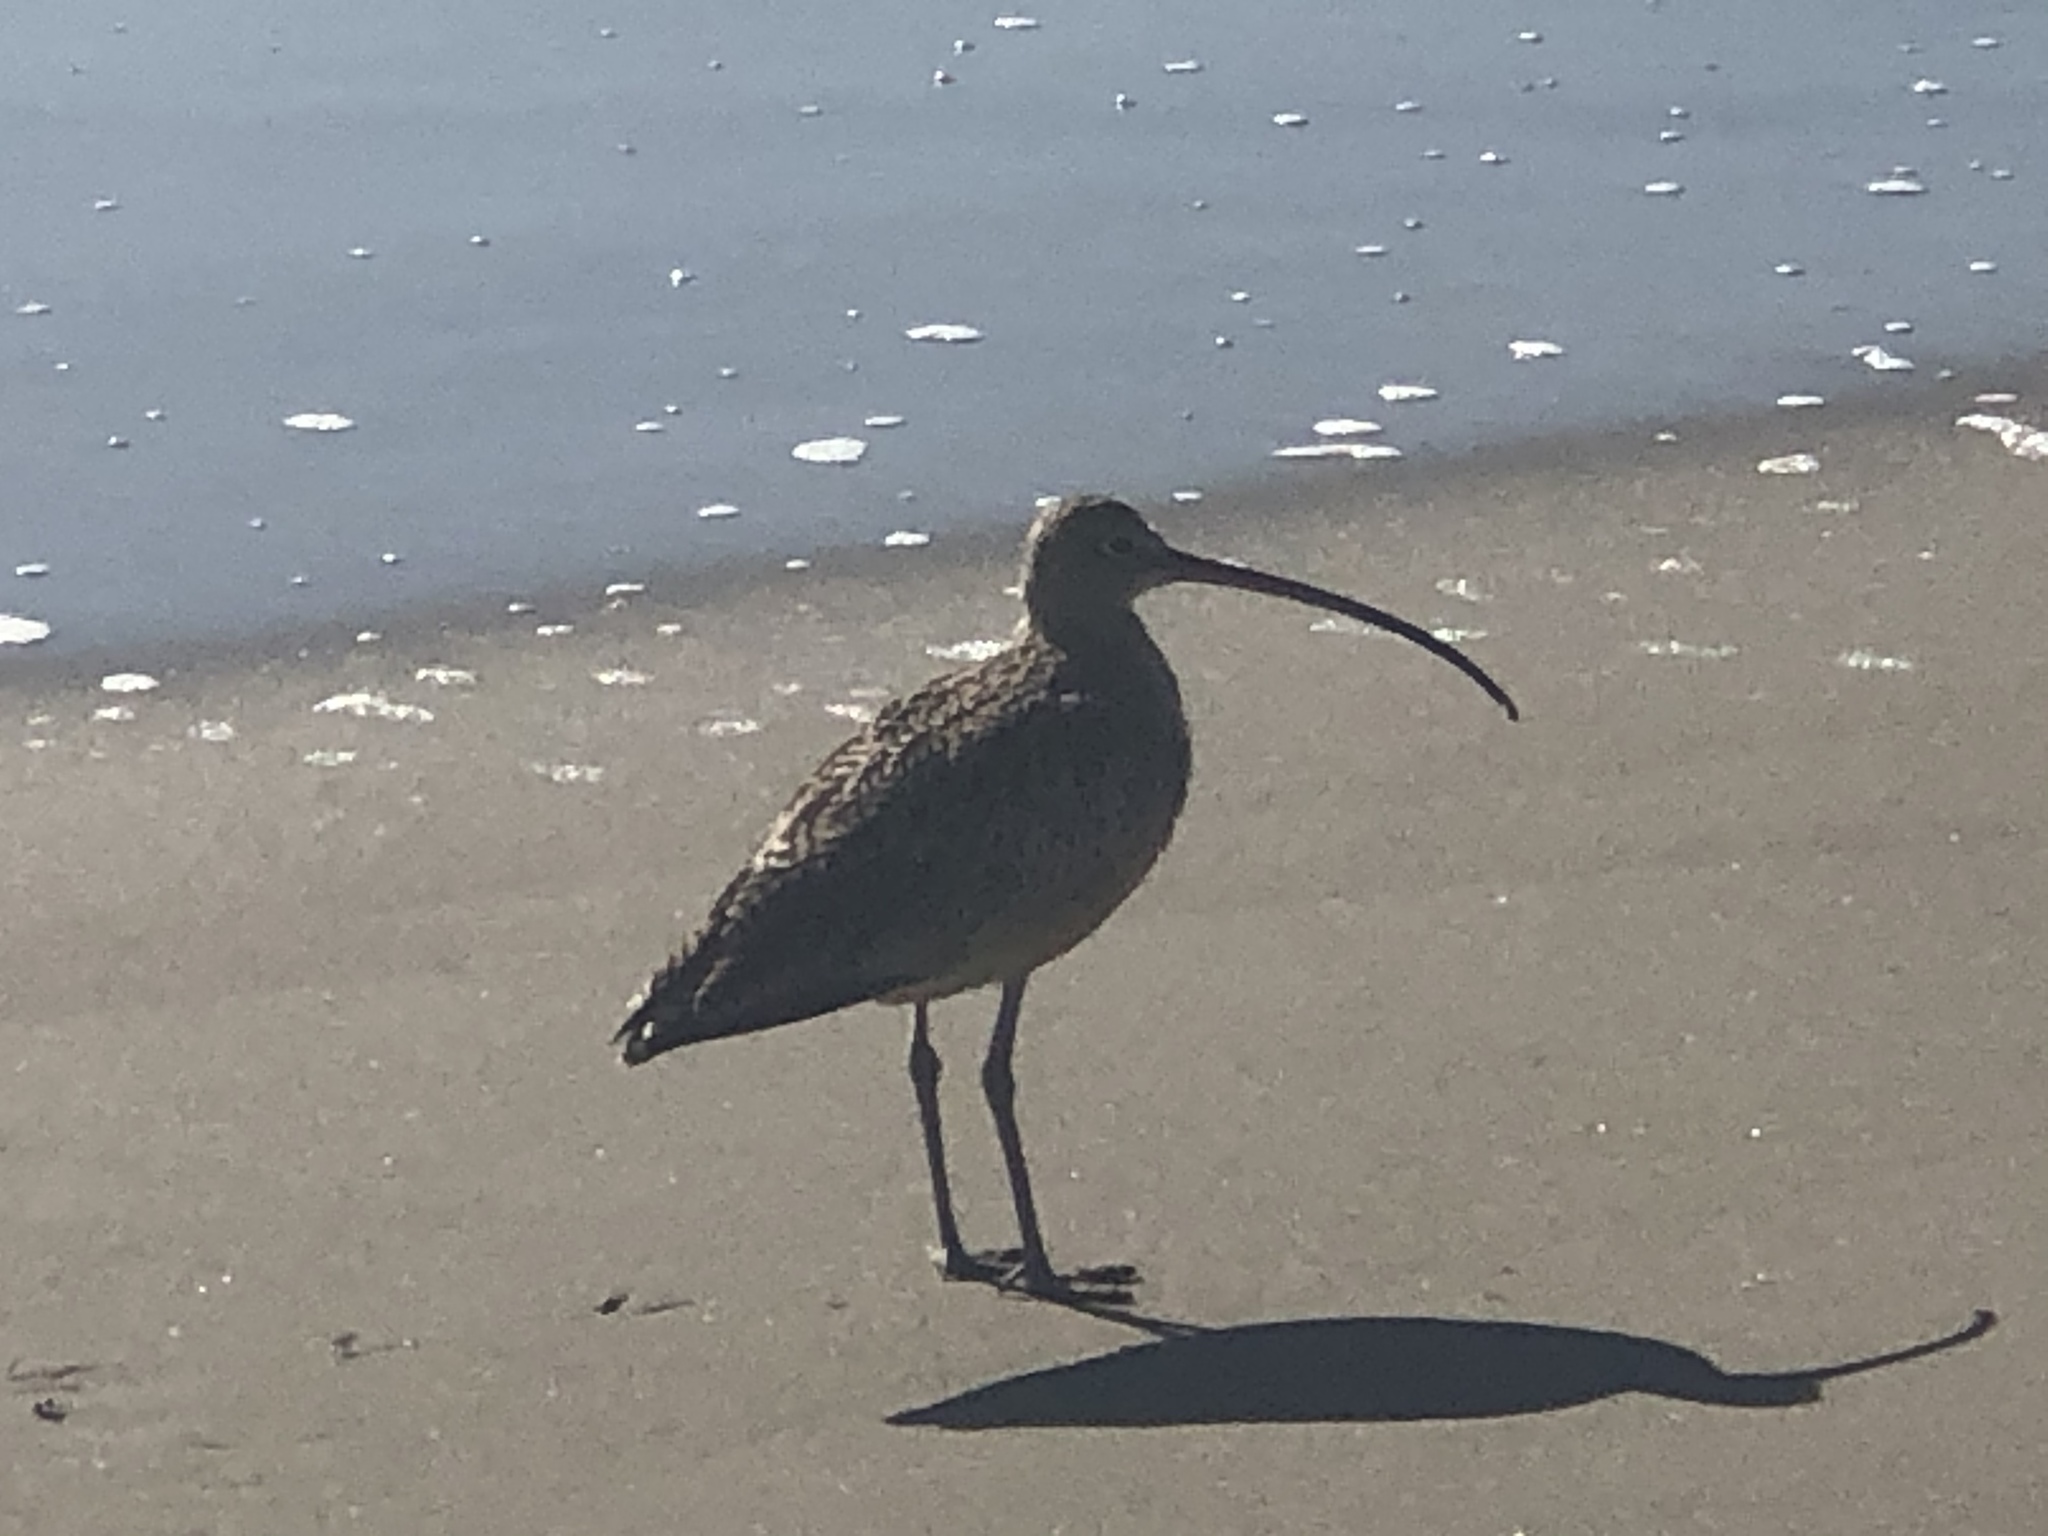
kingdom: Animalia
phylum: Chordata
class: Aves
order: Charadriiformes
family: Scolopacidae
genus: Numenius
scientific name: Numenius americanus
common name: Long-billed curlew
